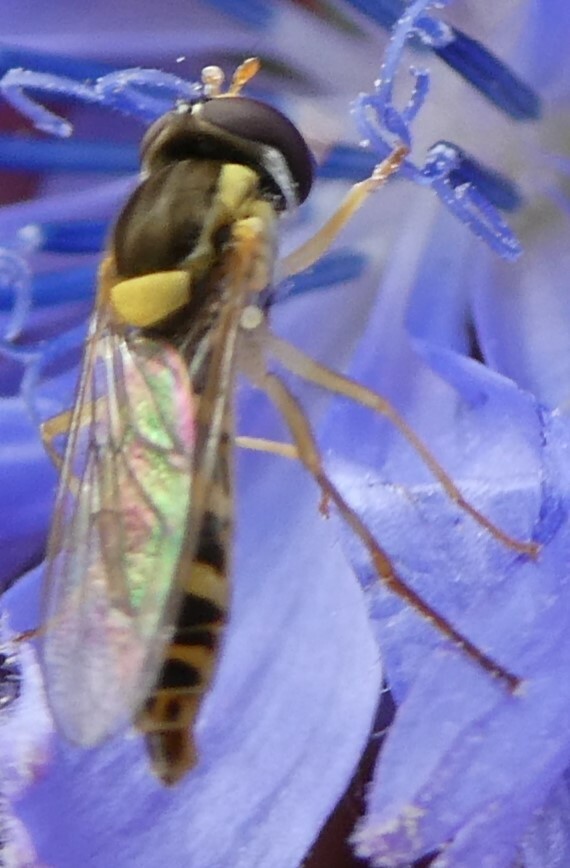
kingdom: Animalia
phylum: Arthropoda
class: Insecta
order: Diptera
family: Syrphidae
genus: Sphaerophoria
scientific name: Sphaerophoria
